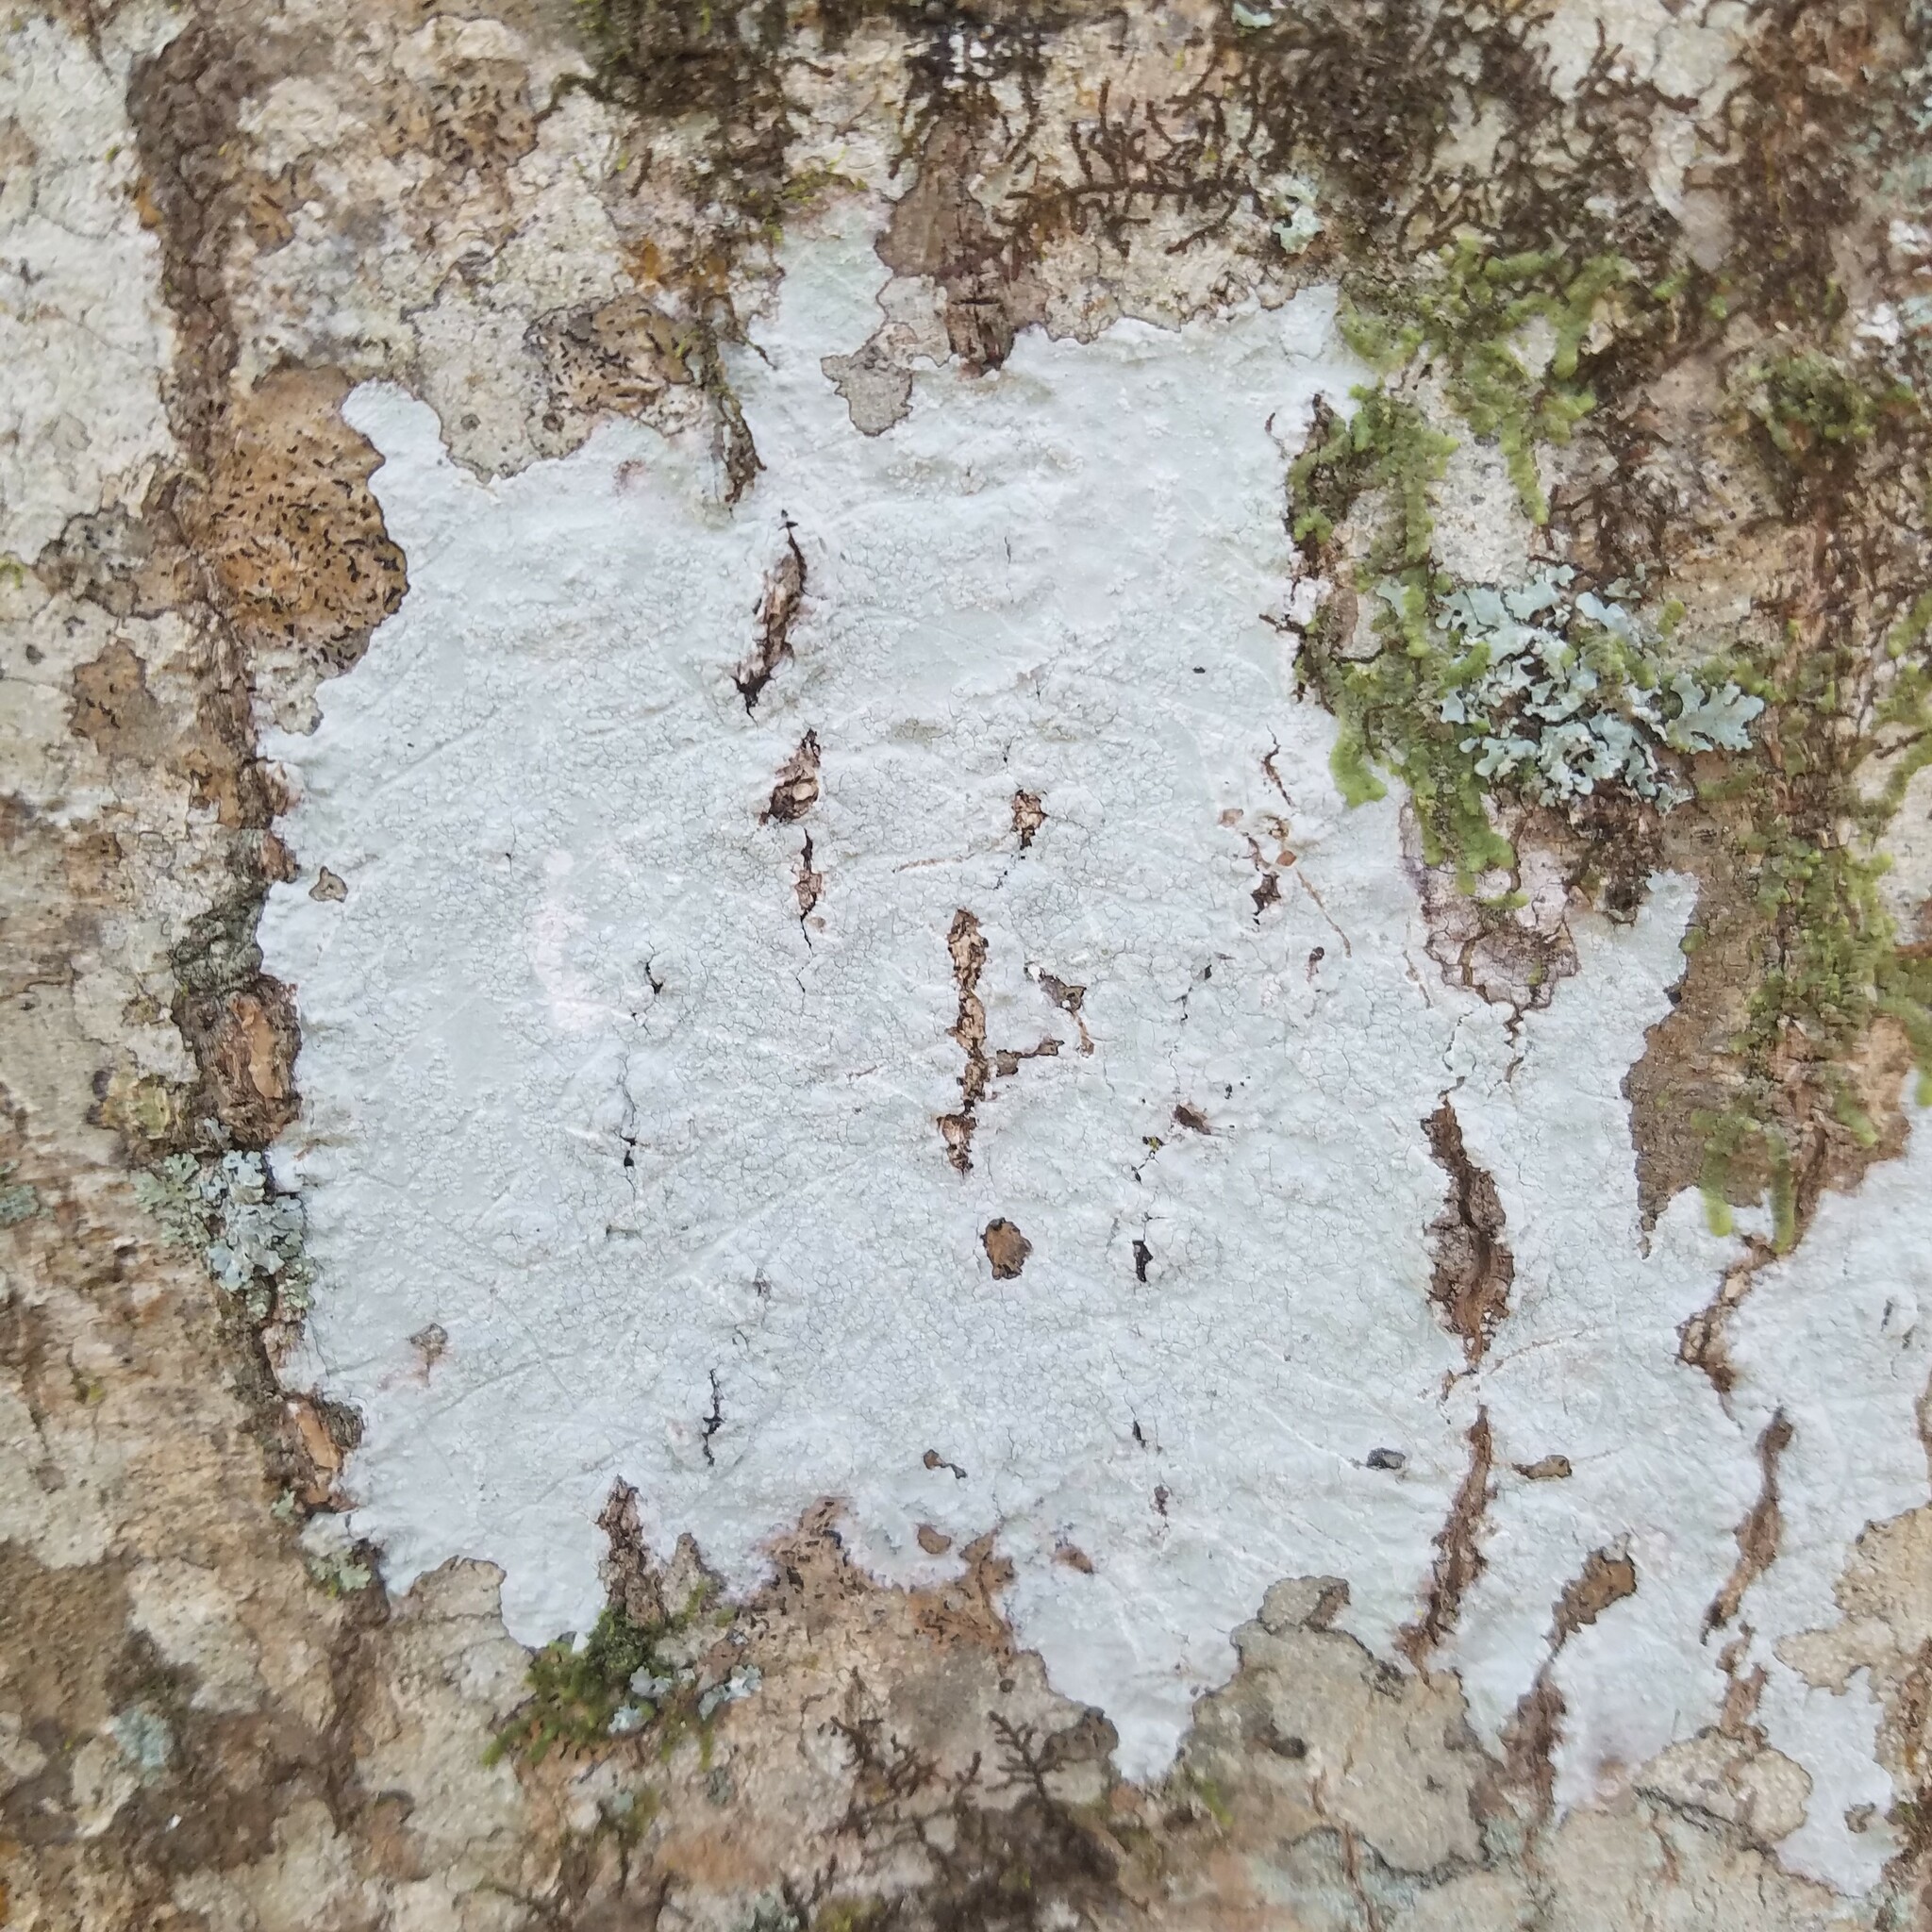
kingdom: Fungi
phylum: Ascomycota
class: Lecanoromycetes
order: Ostropales
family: Phlyctidaceae
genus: Phlyctis
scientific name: Phlyctis boliviensis
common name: Bark whitewash
